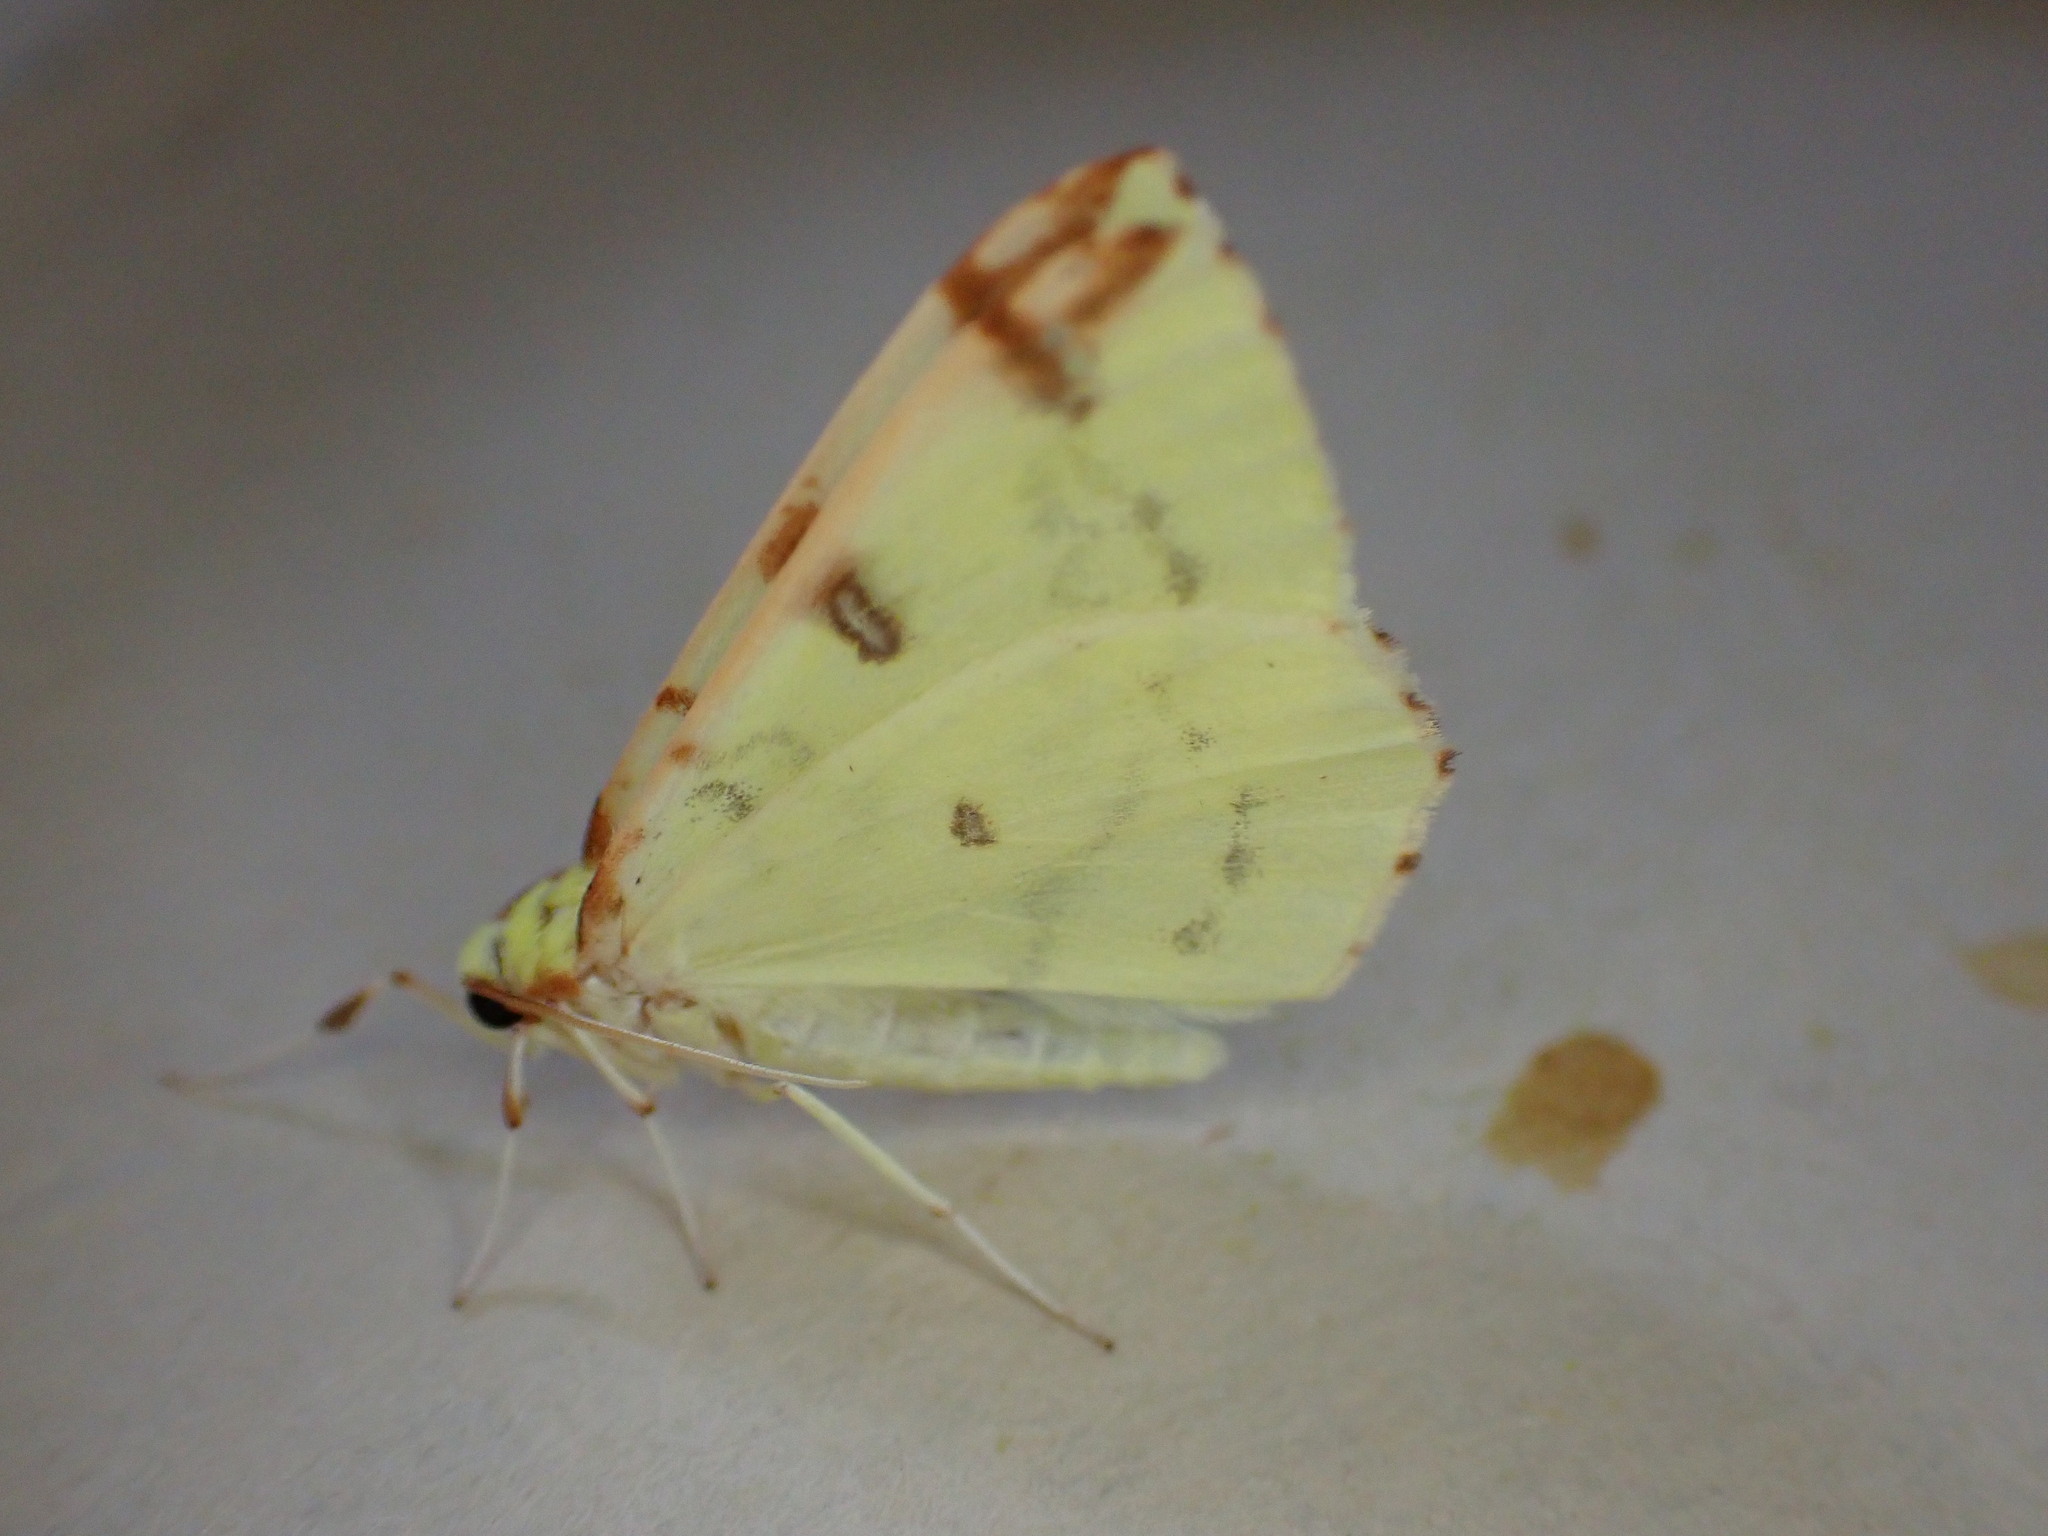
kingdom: Animalia
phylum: Arthropoda
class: Insecta
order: Lepidoptera
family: Geometridae
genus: Opisthograptis
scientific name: Opisthograptis luteolata
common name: Brimstone moth
